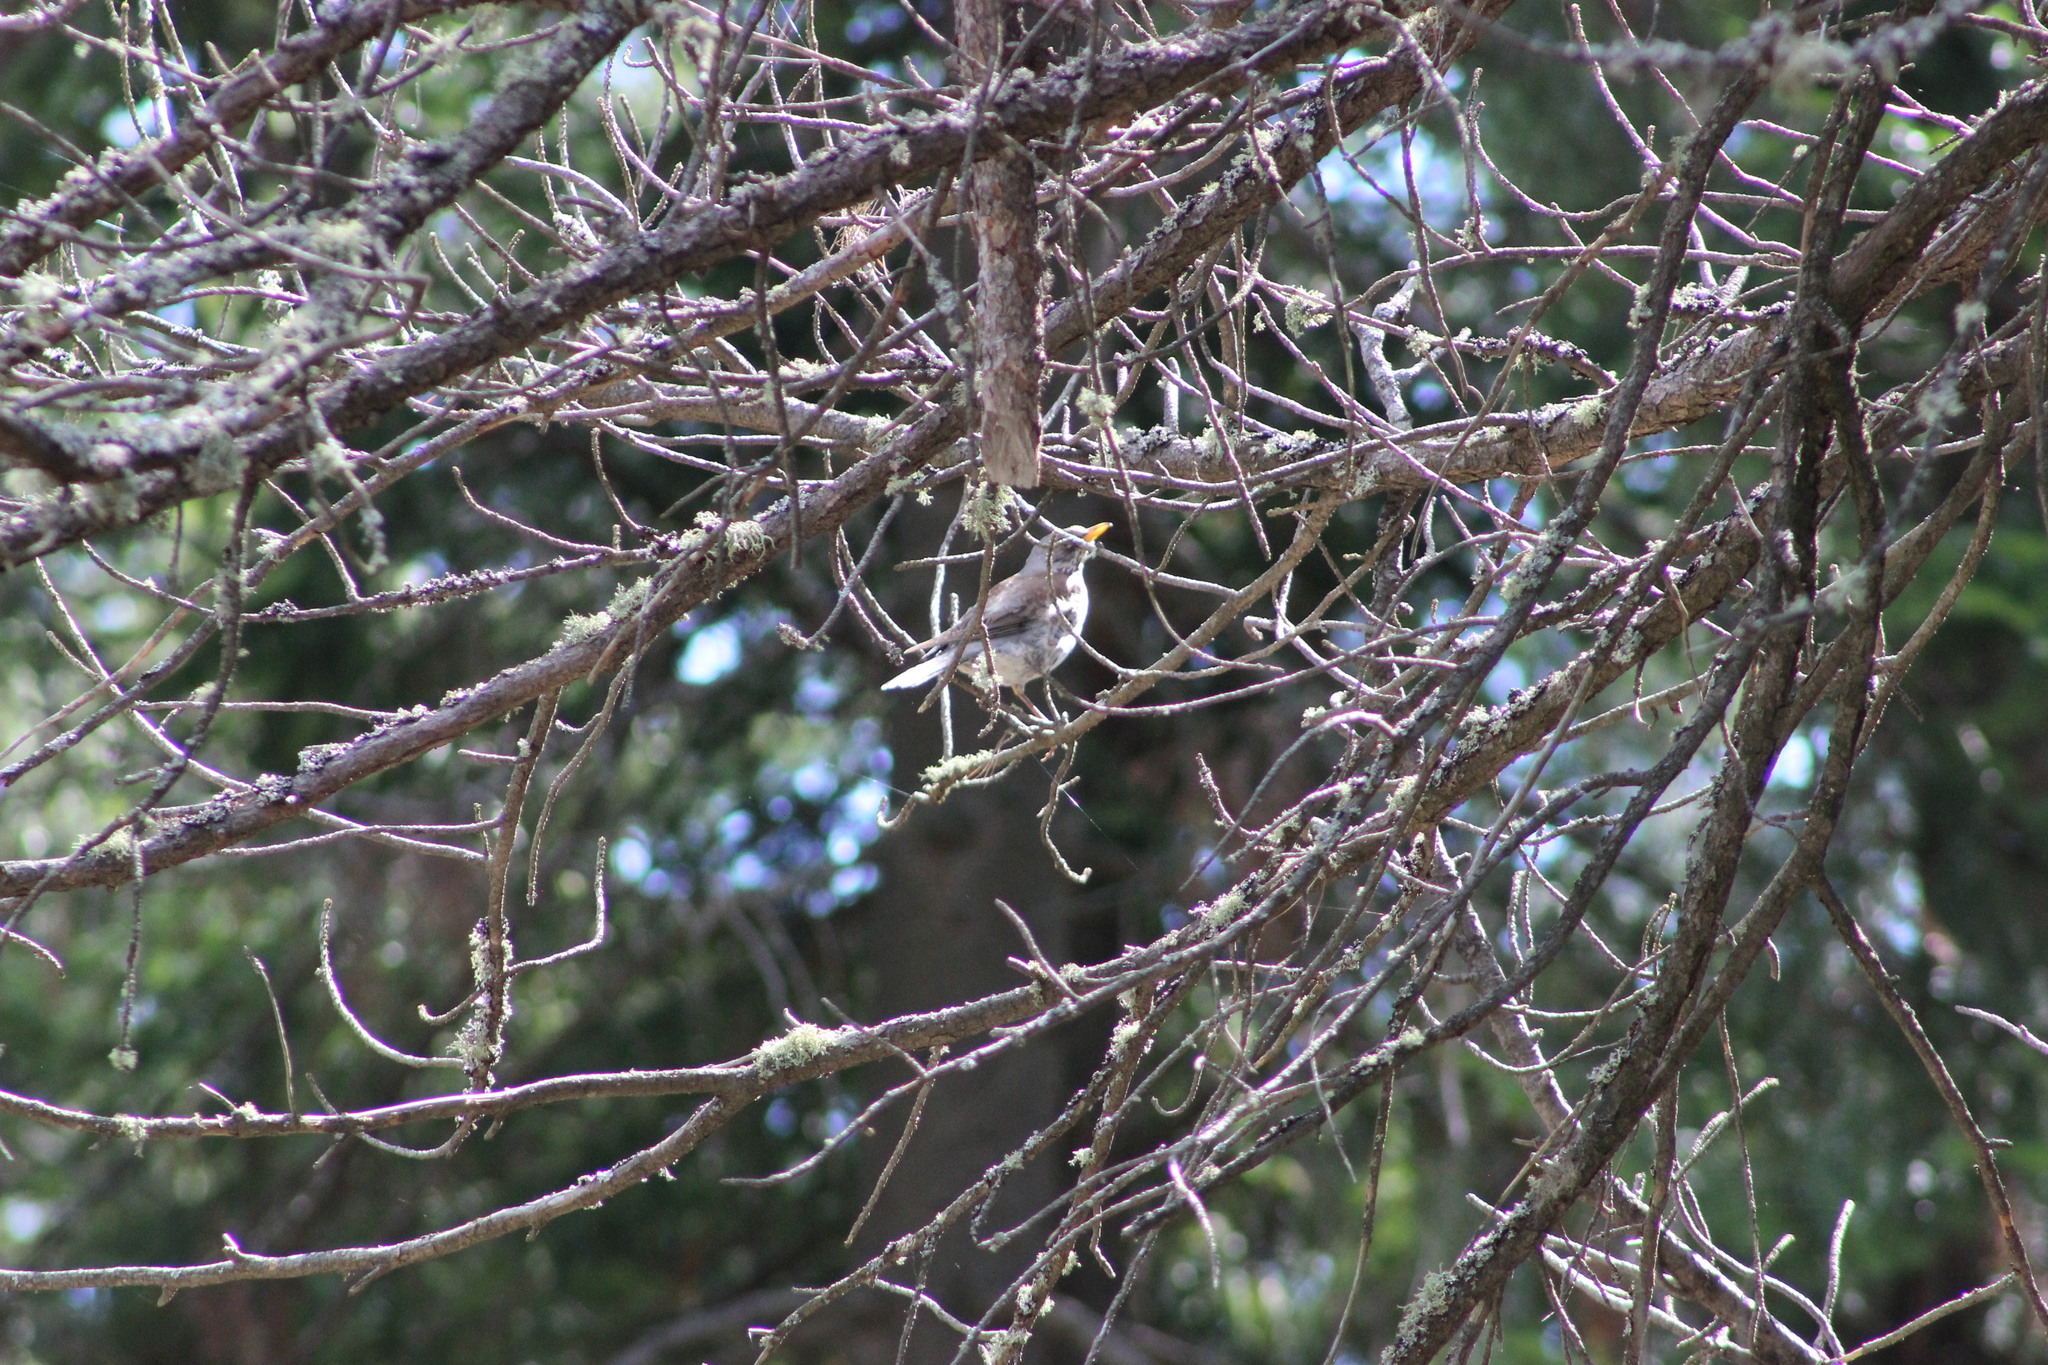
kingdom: Animalia
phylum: Chordata
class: Aves
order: Passeriformes
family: Turdidae
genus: Turdus
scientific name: Turdus pilaris
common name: Fieldfare
